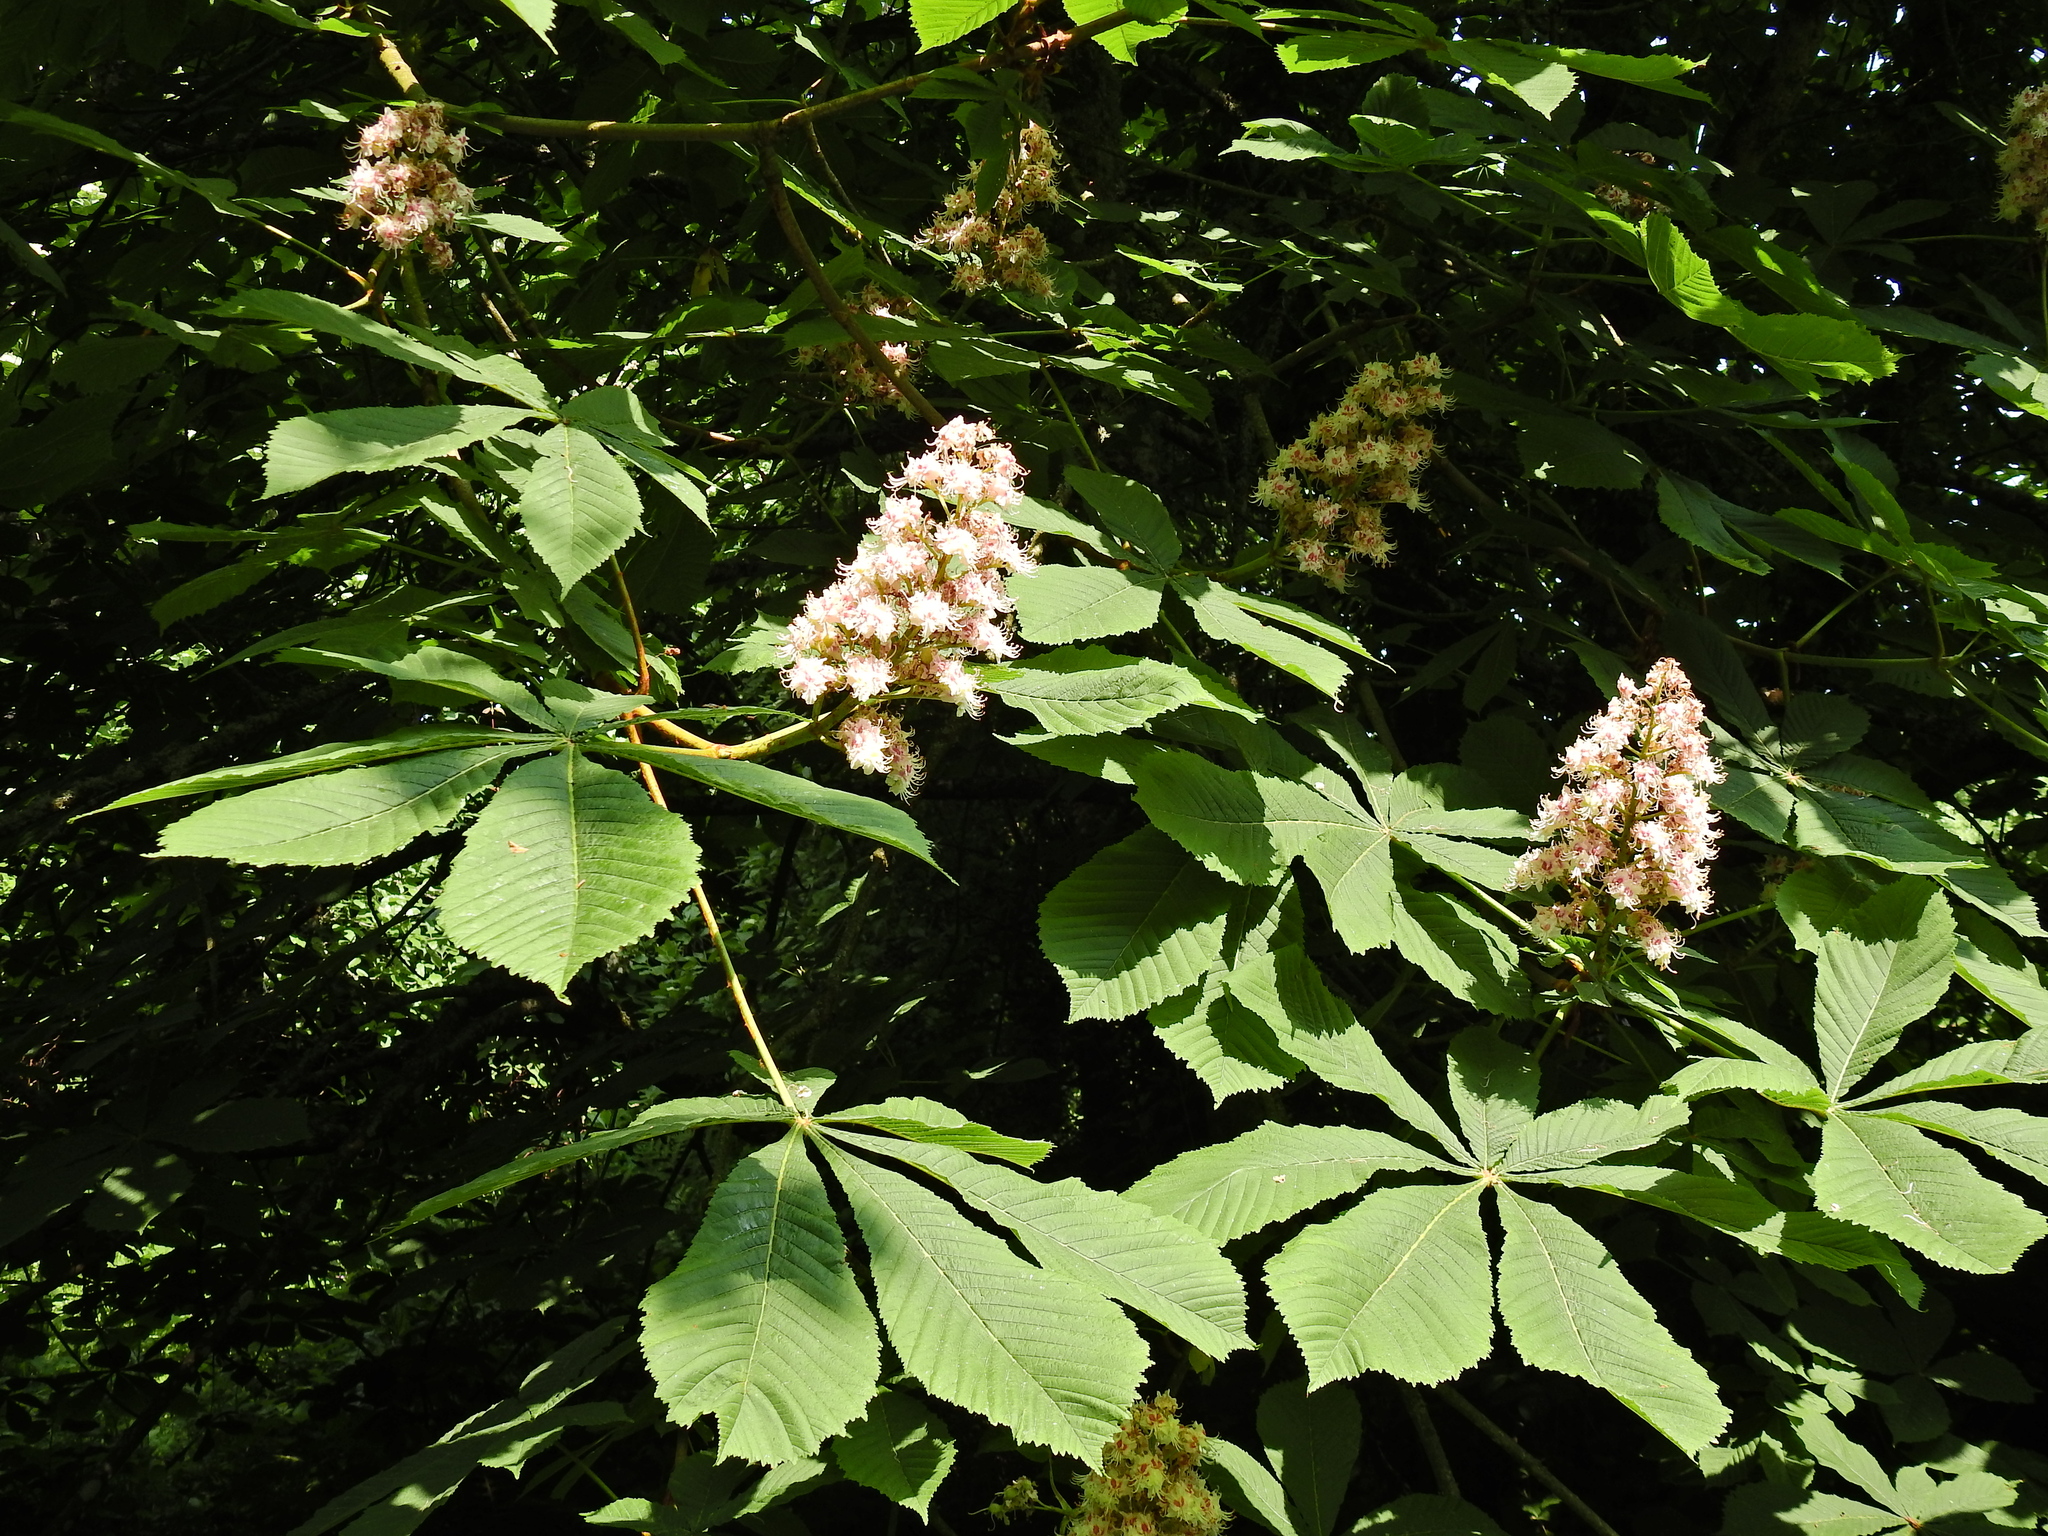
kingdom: Plantae
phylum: Tracheophyta
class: Magnoliopsida
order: Sapindales
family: Sapindaceae
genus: Aesculus
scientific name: Aesculus hippocastanum
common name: Horse-chestnut
